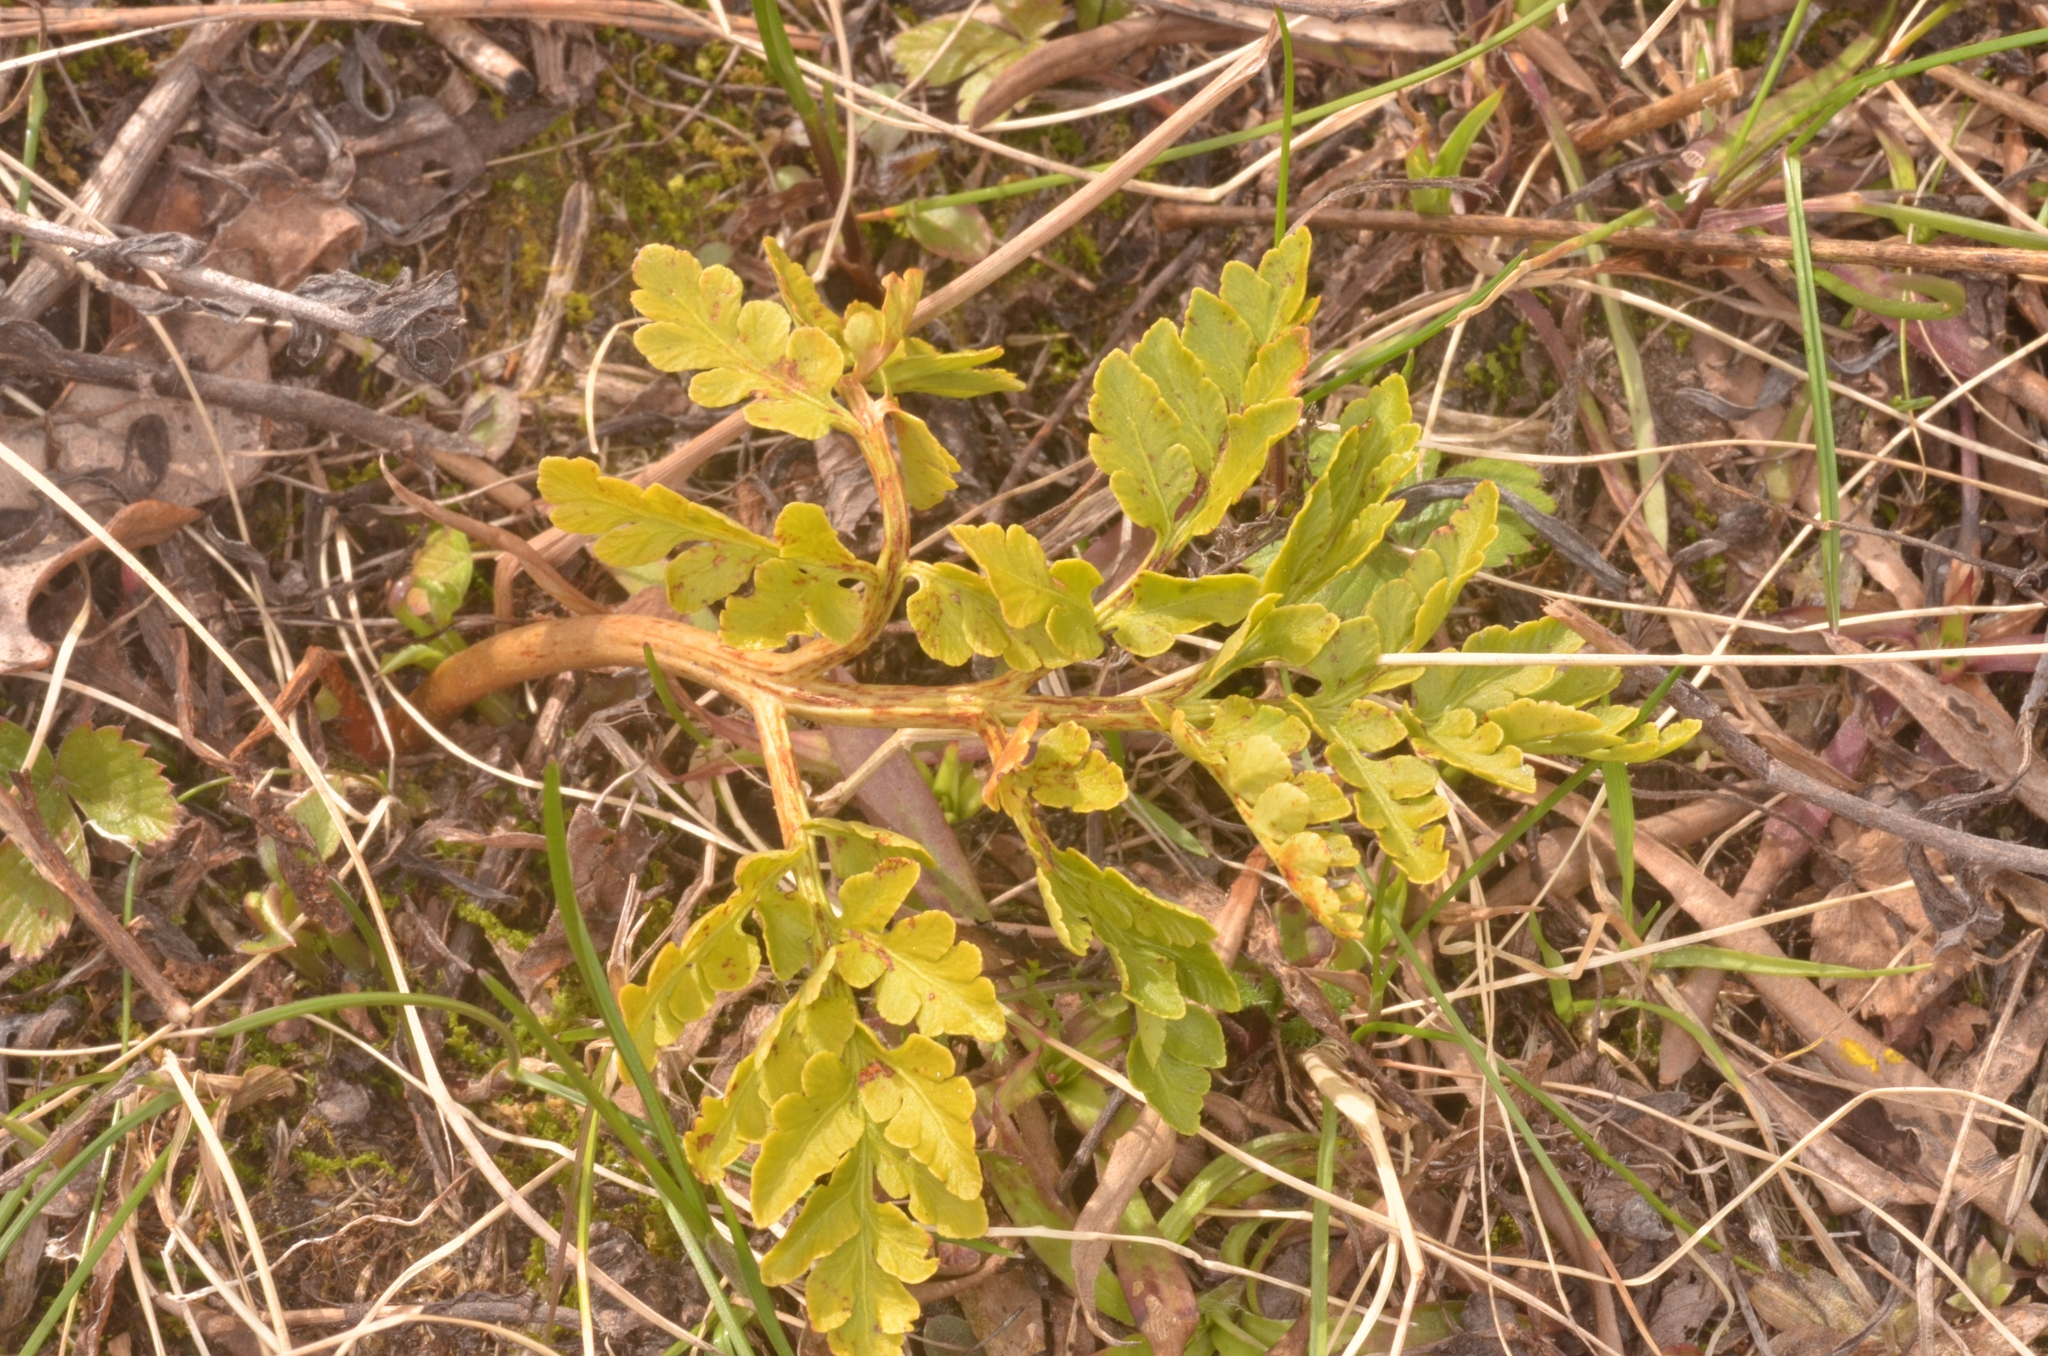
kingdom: Plantae
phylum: Tracheophyta
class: Polypodiopsida
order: Ophioglossales
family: Ophioglossaceae
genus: Sceptridium
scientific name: Sceptridium multifidum
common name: Leathery grape fern
